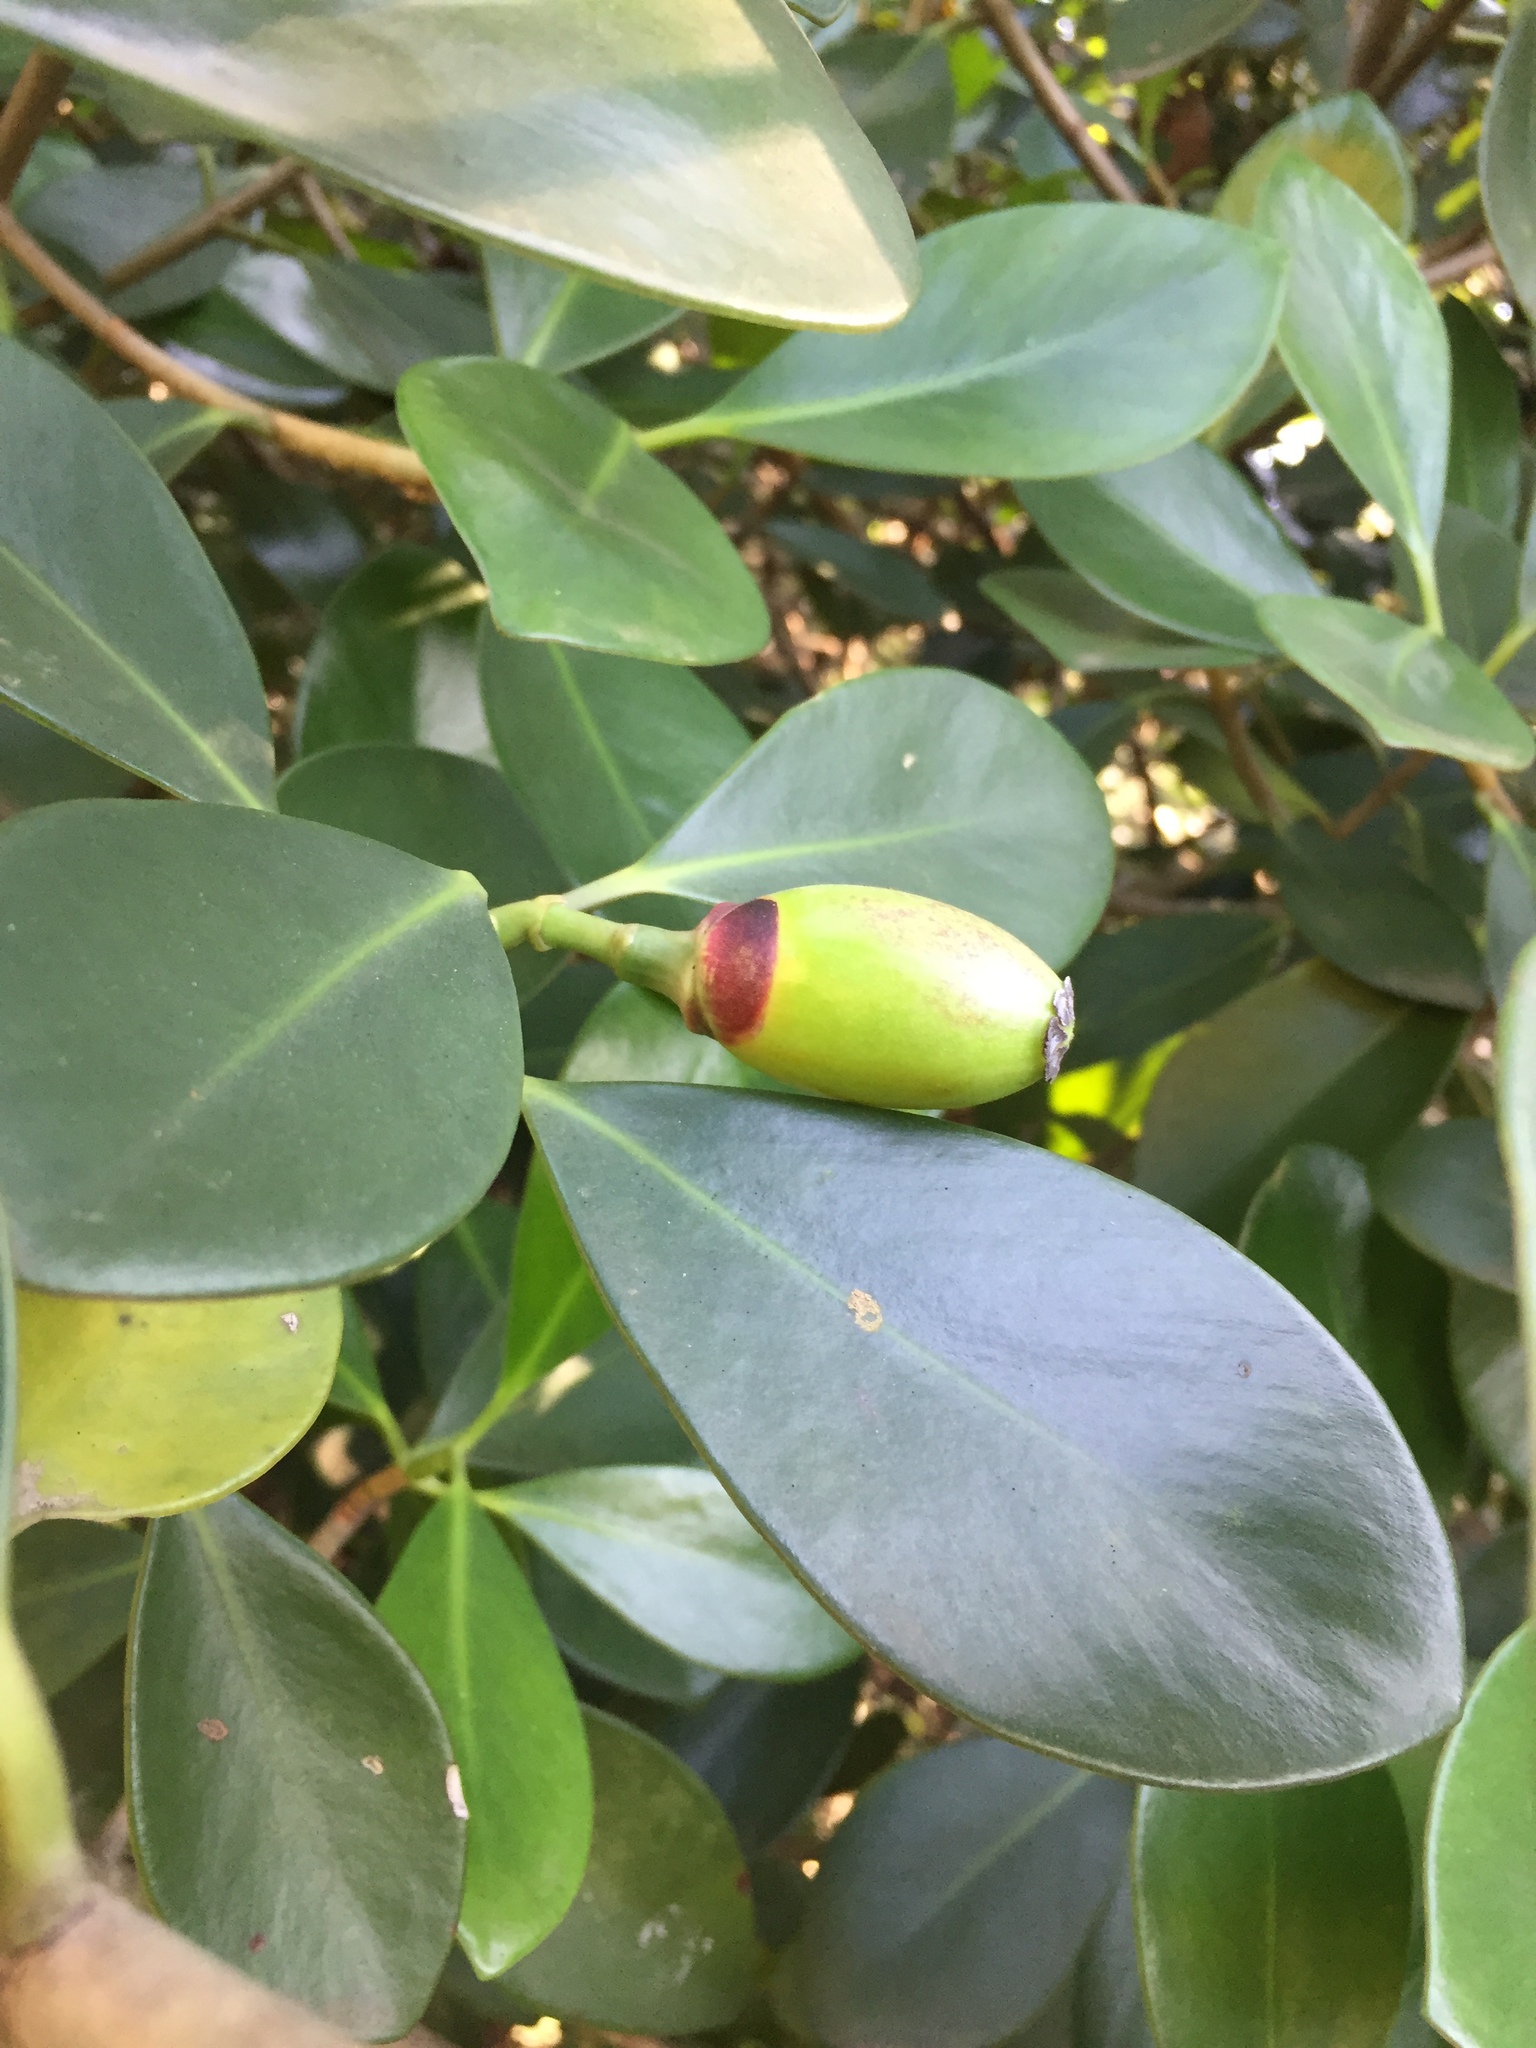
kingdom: Plantae
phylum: Tracheophyta
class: Magnoliopsida
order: Malpighiales
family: Clusiaceae
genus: Clusia
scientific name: Clusia rosea
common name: Scotch attorney
